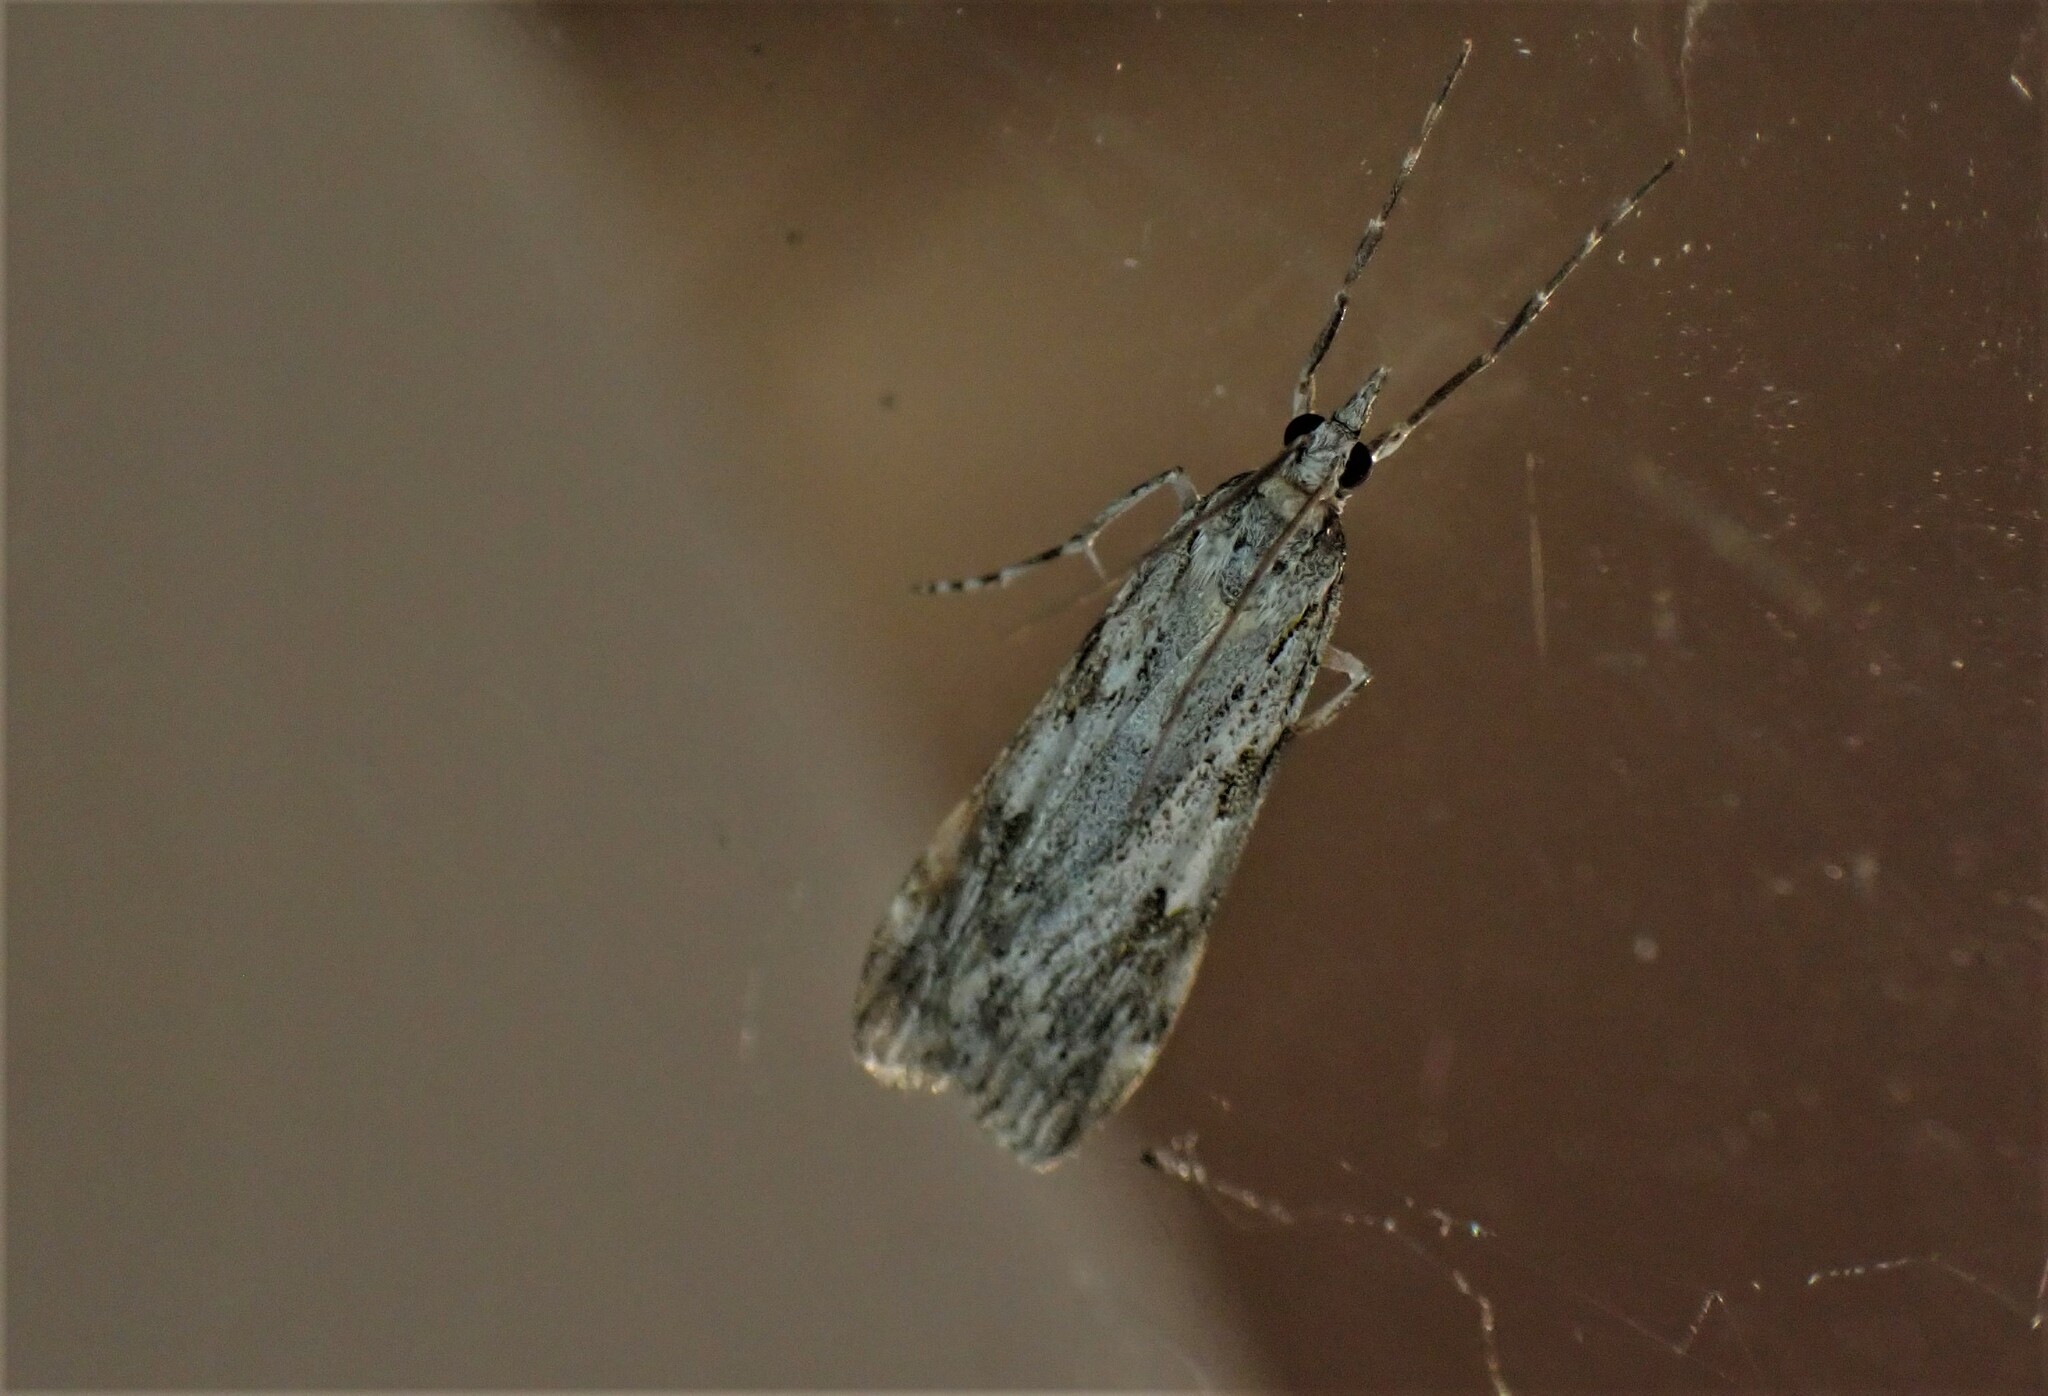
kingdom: Animalia
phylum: Arthropoda
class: Insecta
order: Lepidoptera
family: Crambidae
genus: Scoparia
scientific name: Scoparia halopis
